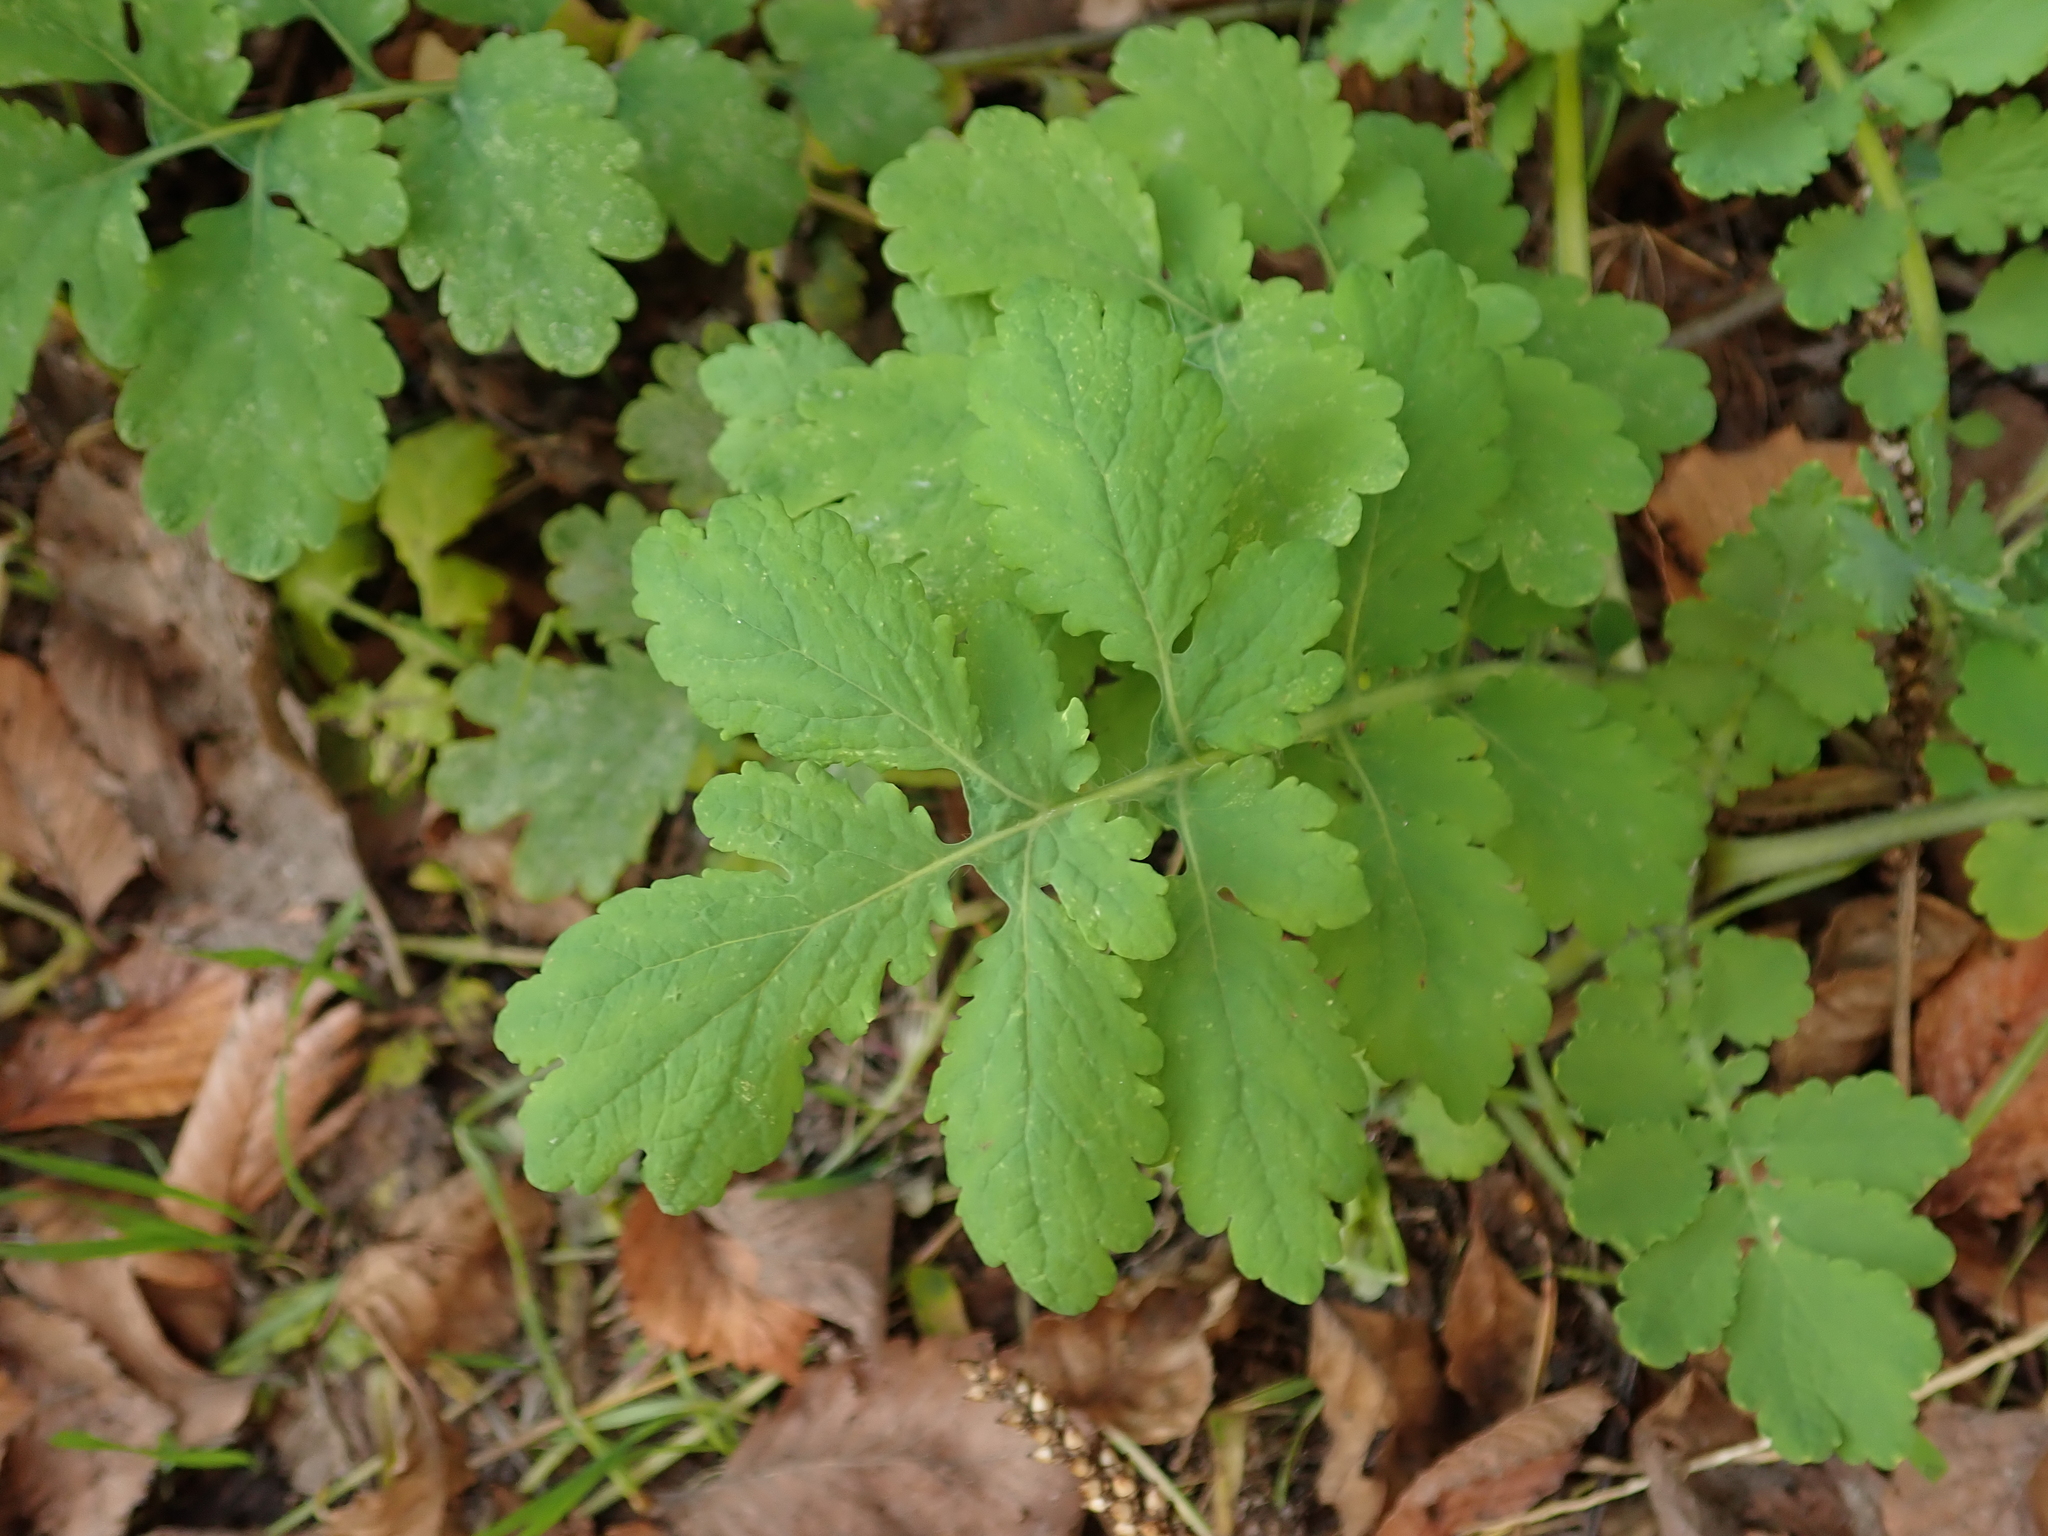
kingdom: Plantae
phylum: Tracheophyta
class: Magnoliopsida
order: Ranunculales
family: Papaveraceae
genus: Chelidonium
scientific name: Chelidonium majus
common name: Greater celandine
